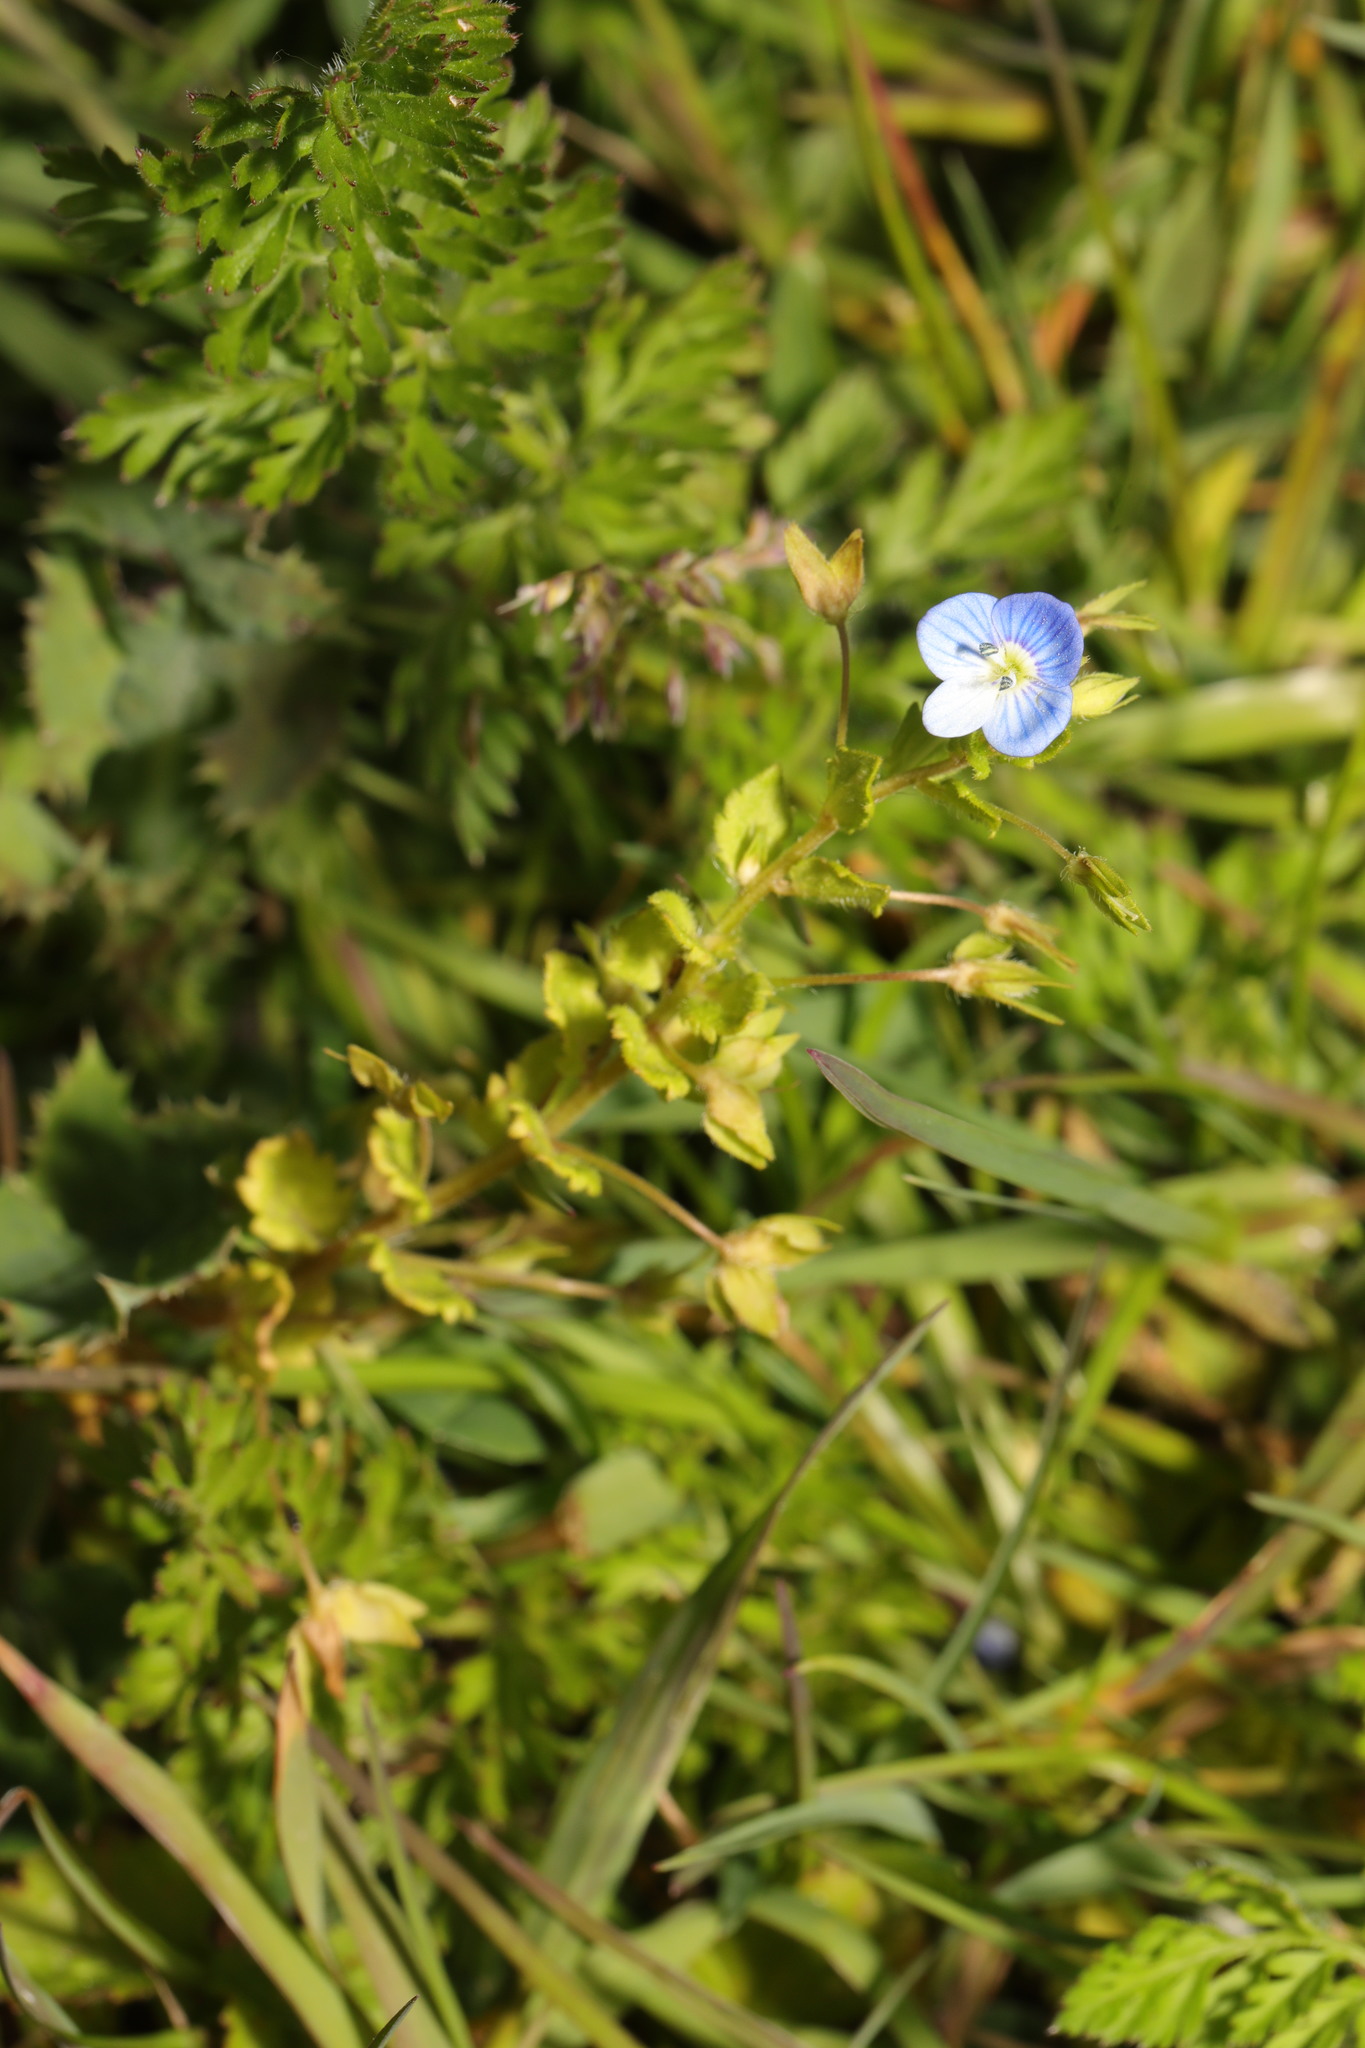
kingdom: Plantae
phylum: Tracheophyta
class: Magnoliopsida
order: Lamiales
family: Plantaginaceae
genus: Veronica
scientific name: Veronica persica
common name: Common field-speedwell
